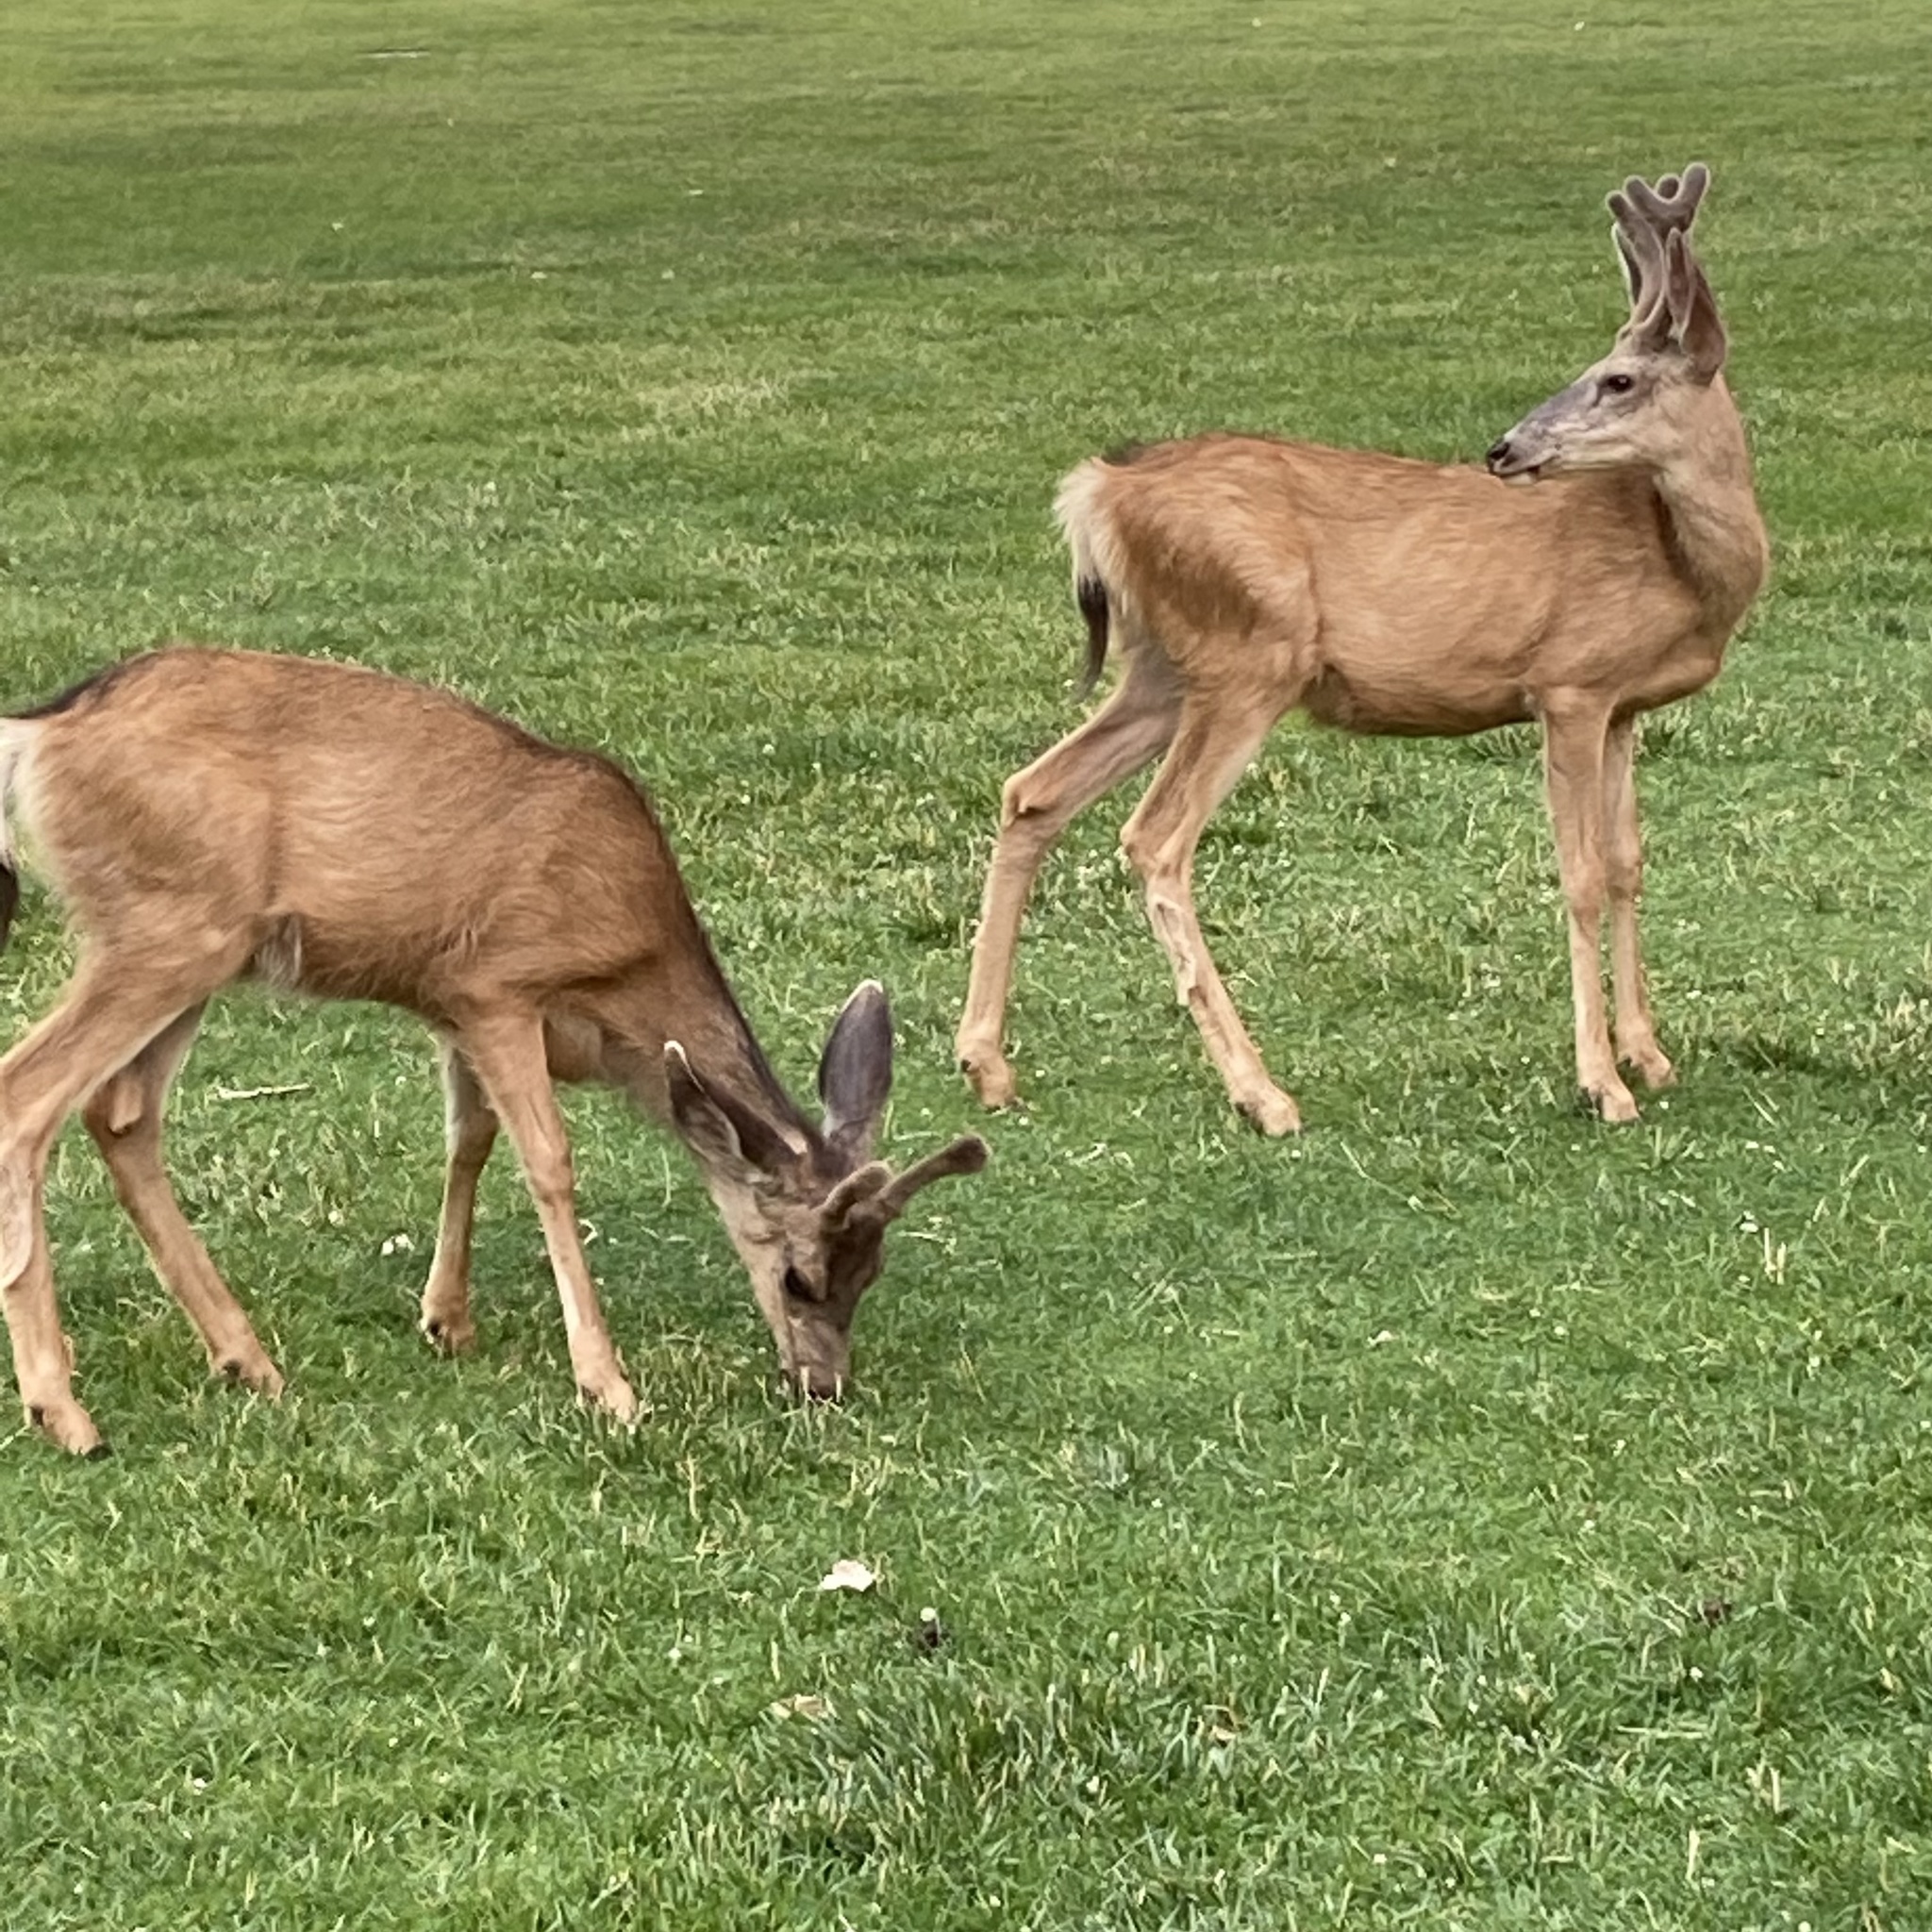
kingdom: Animalia
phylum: Chordata
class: Mammalia
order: Artiodactyla
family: Cervidae
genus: Odocoileus
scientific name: Odocoileus hemionus
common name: Mule deer
